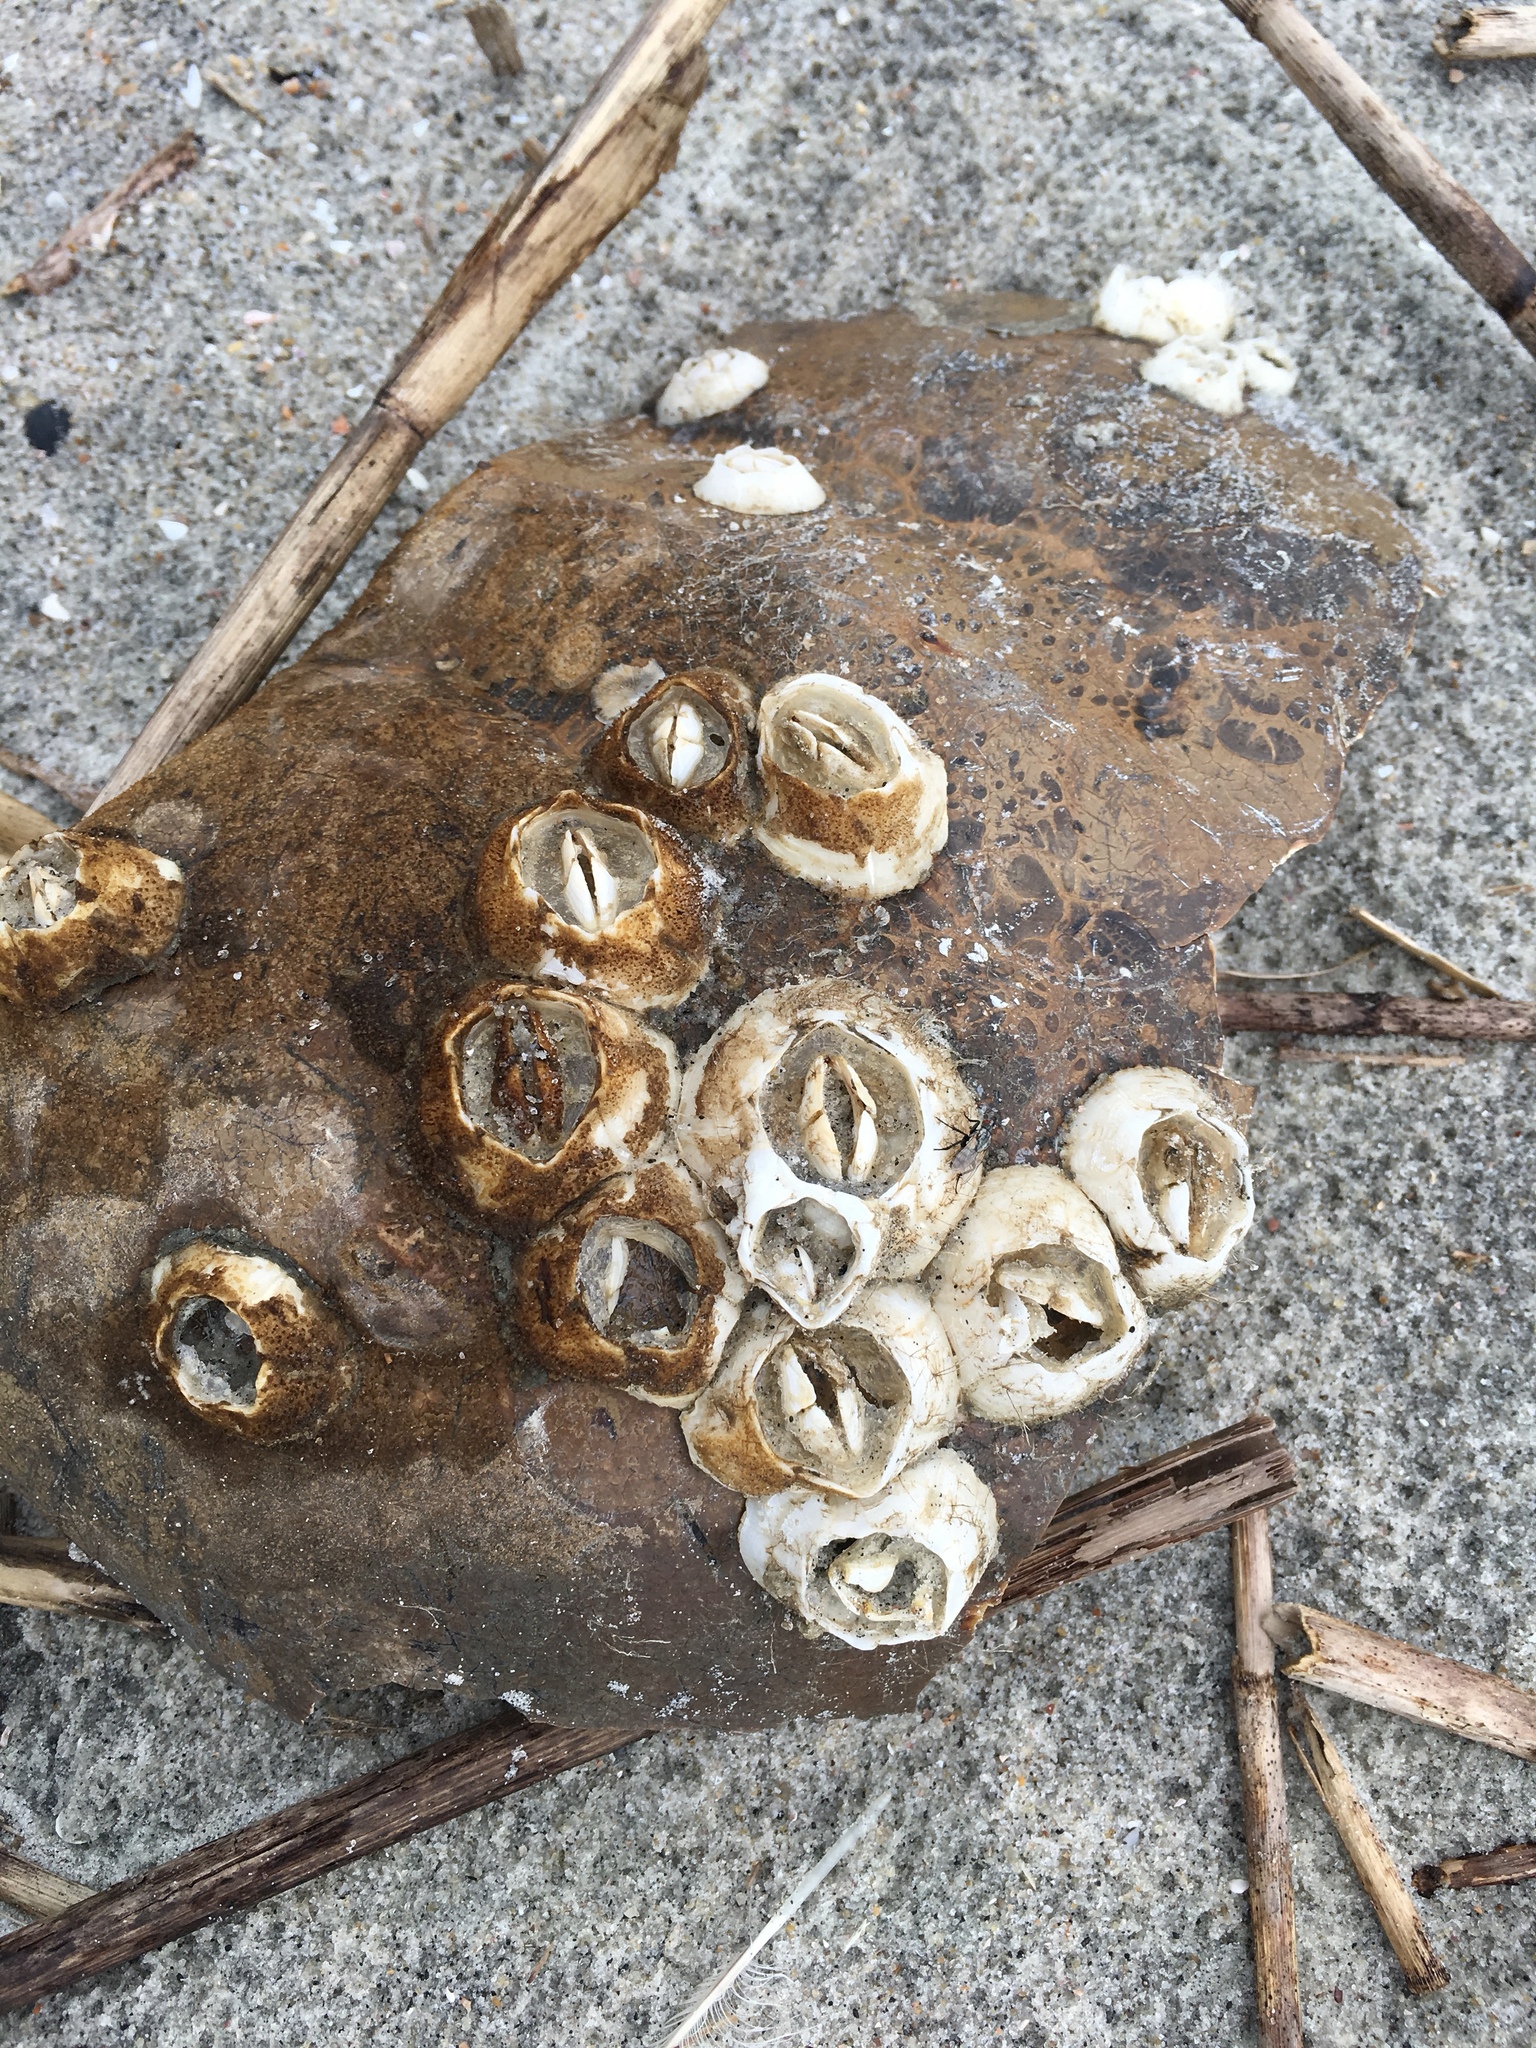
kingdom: Animalia
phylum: Arthropoda
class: Maxillopoda
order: Sessilia
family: Chelonibiidae
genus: Chelonibia
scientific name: Chelonibia testudinaria
